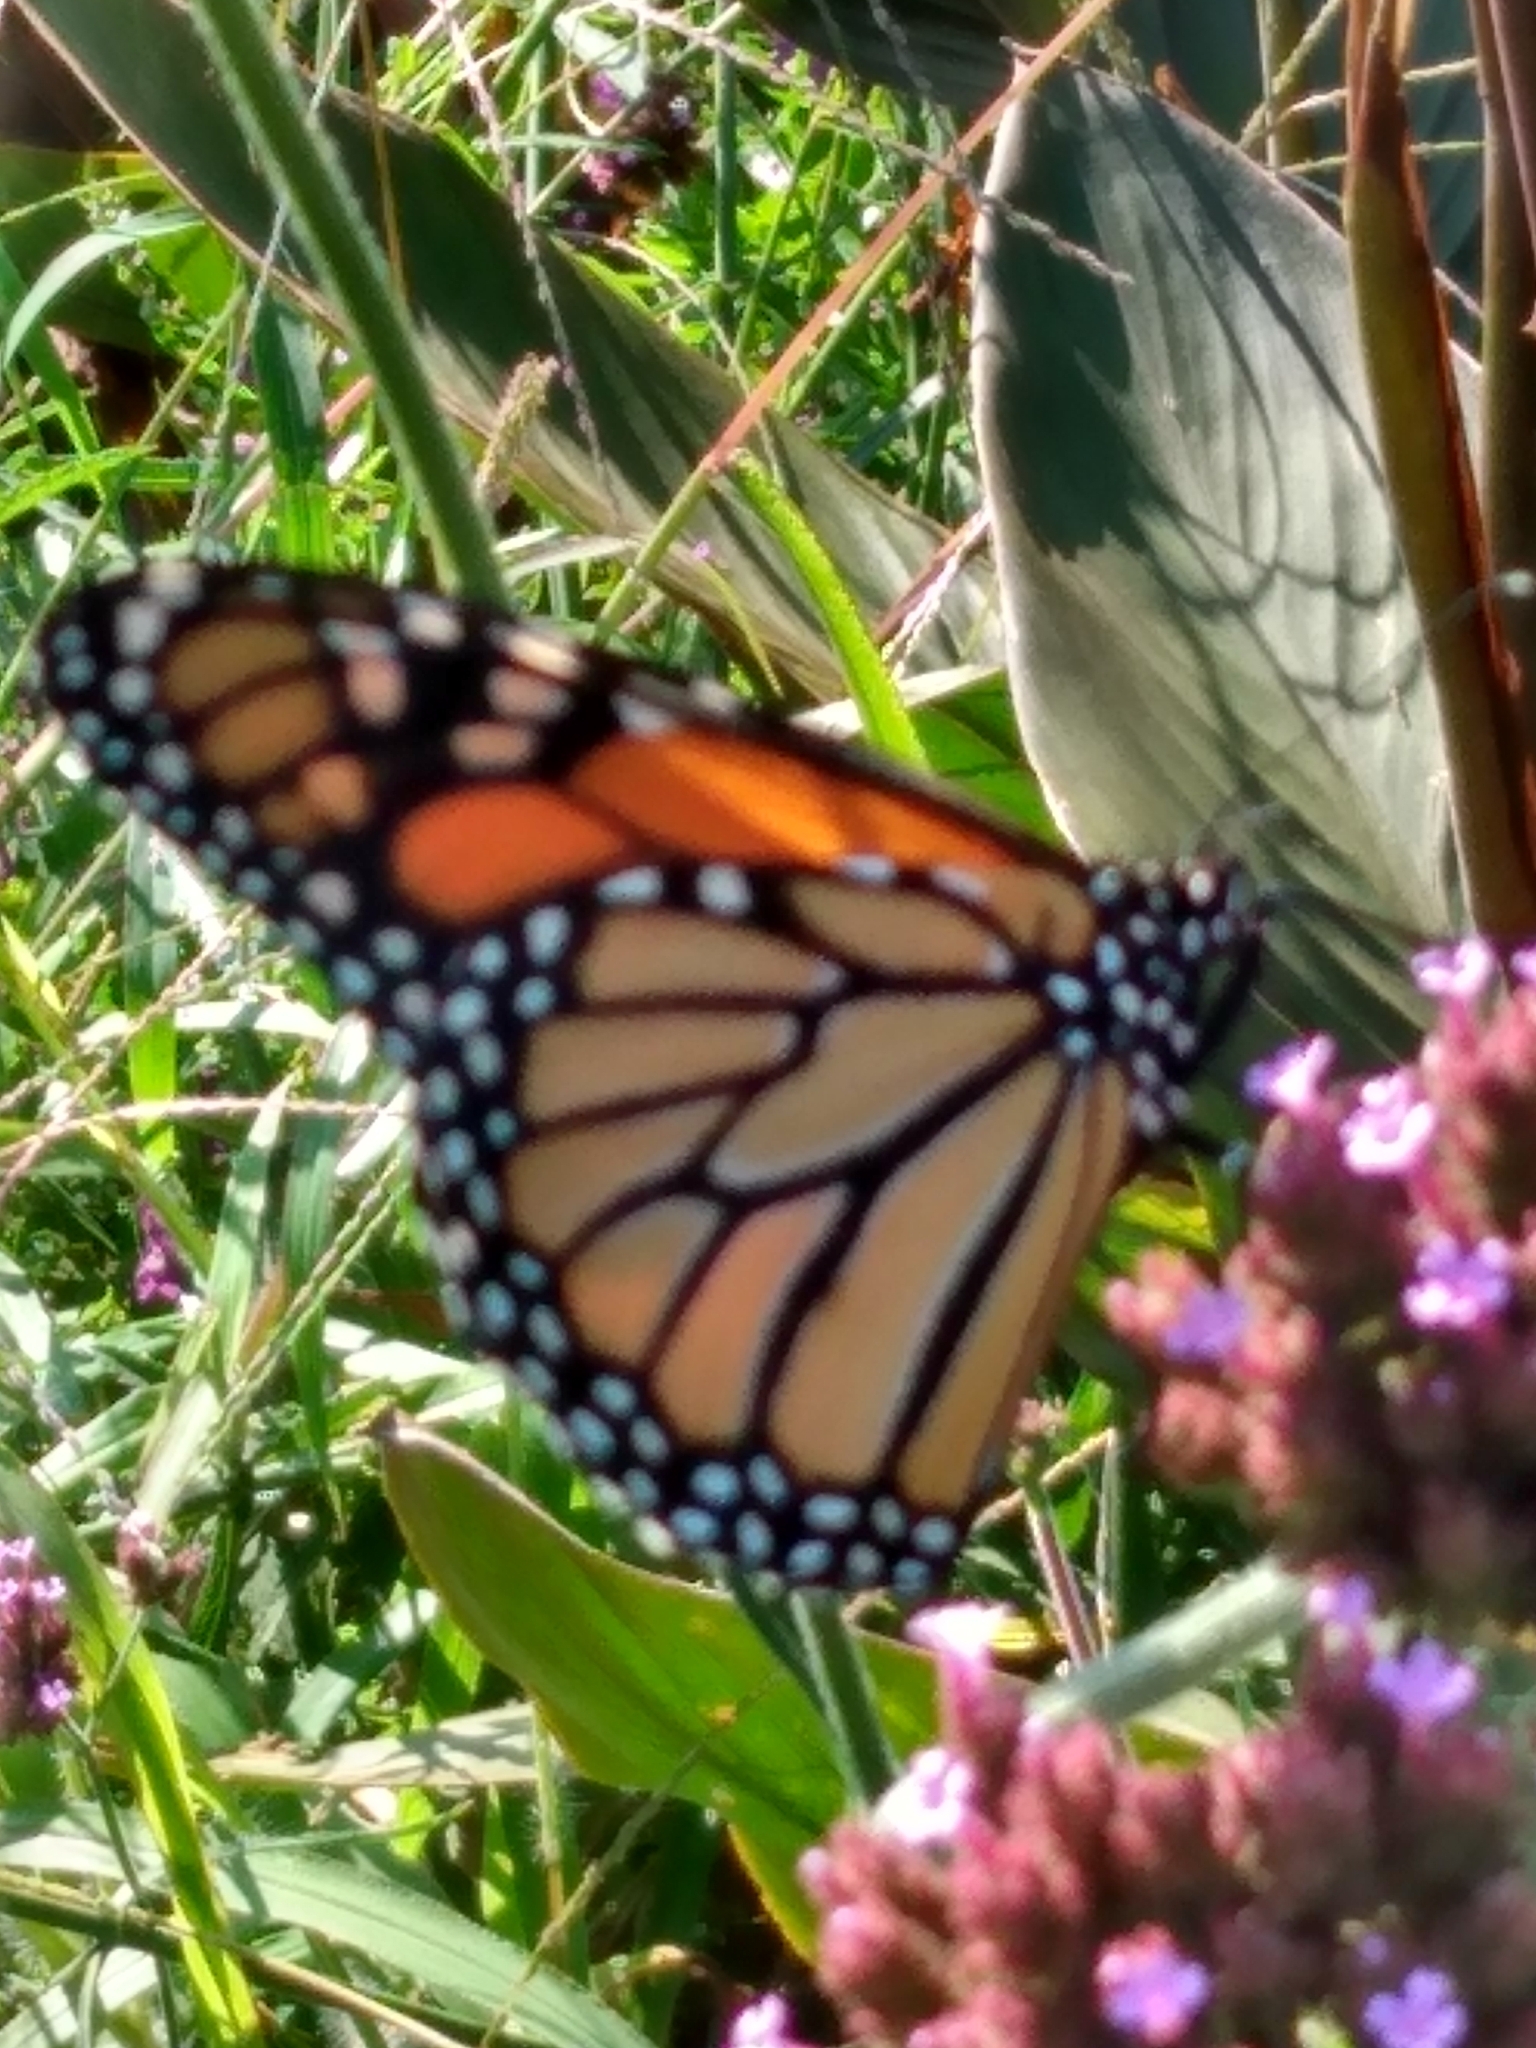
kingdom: Animalia
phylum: Arthropoda
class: Insecta
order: Lepidoptera
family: Nymphalidae
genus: Danaus
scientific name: Danaus plexippus
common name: Monarch
